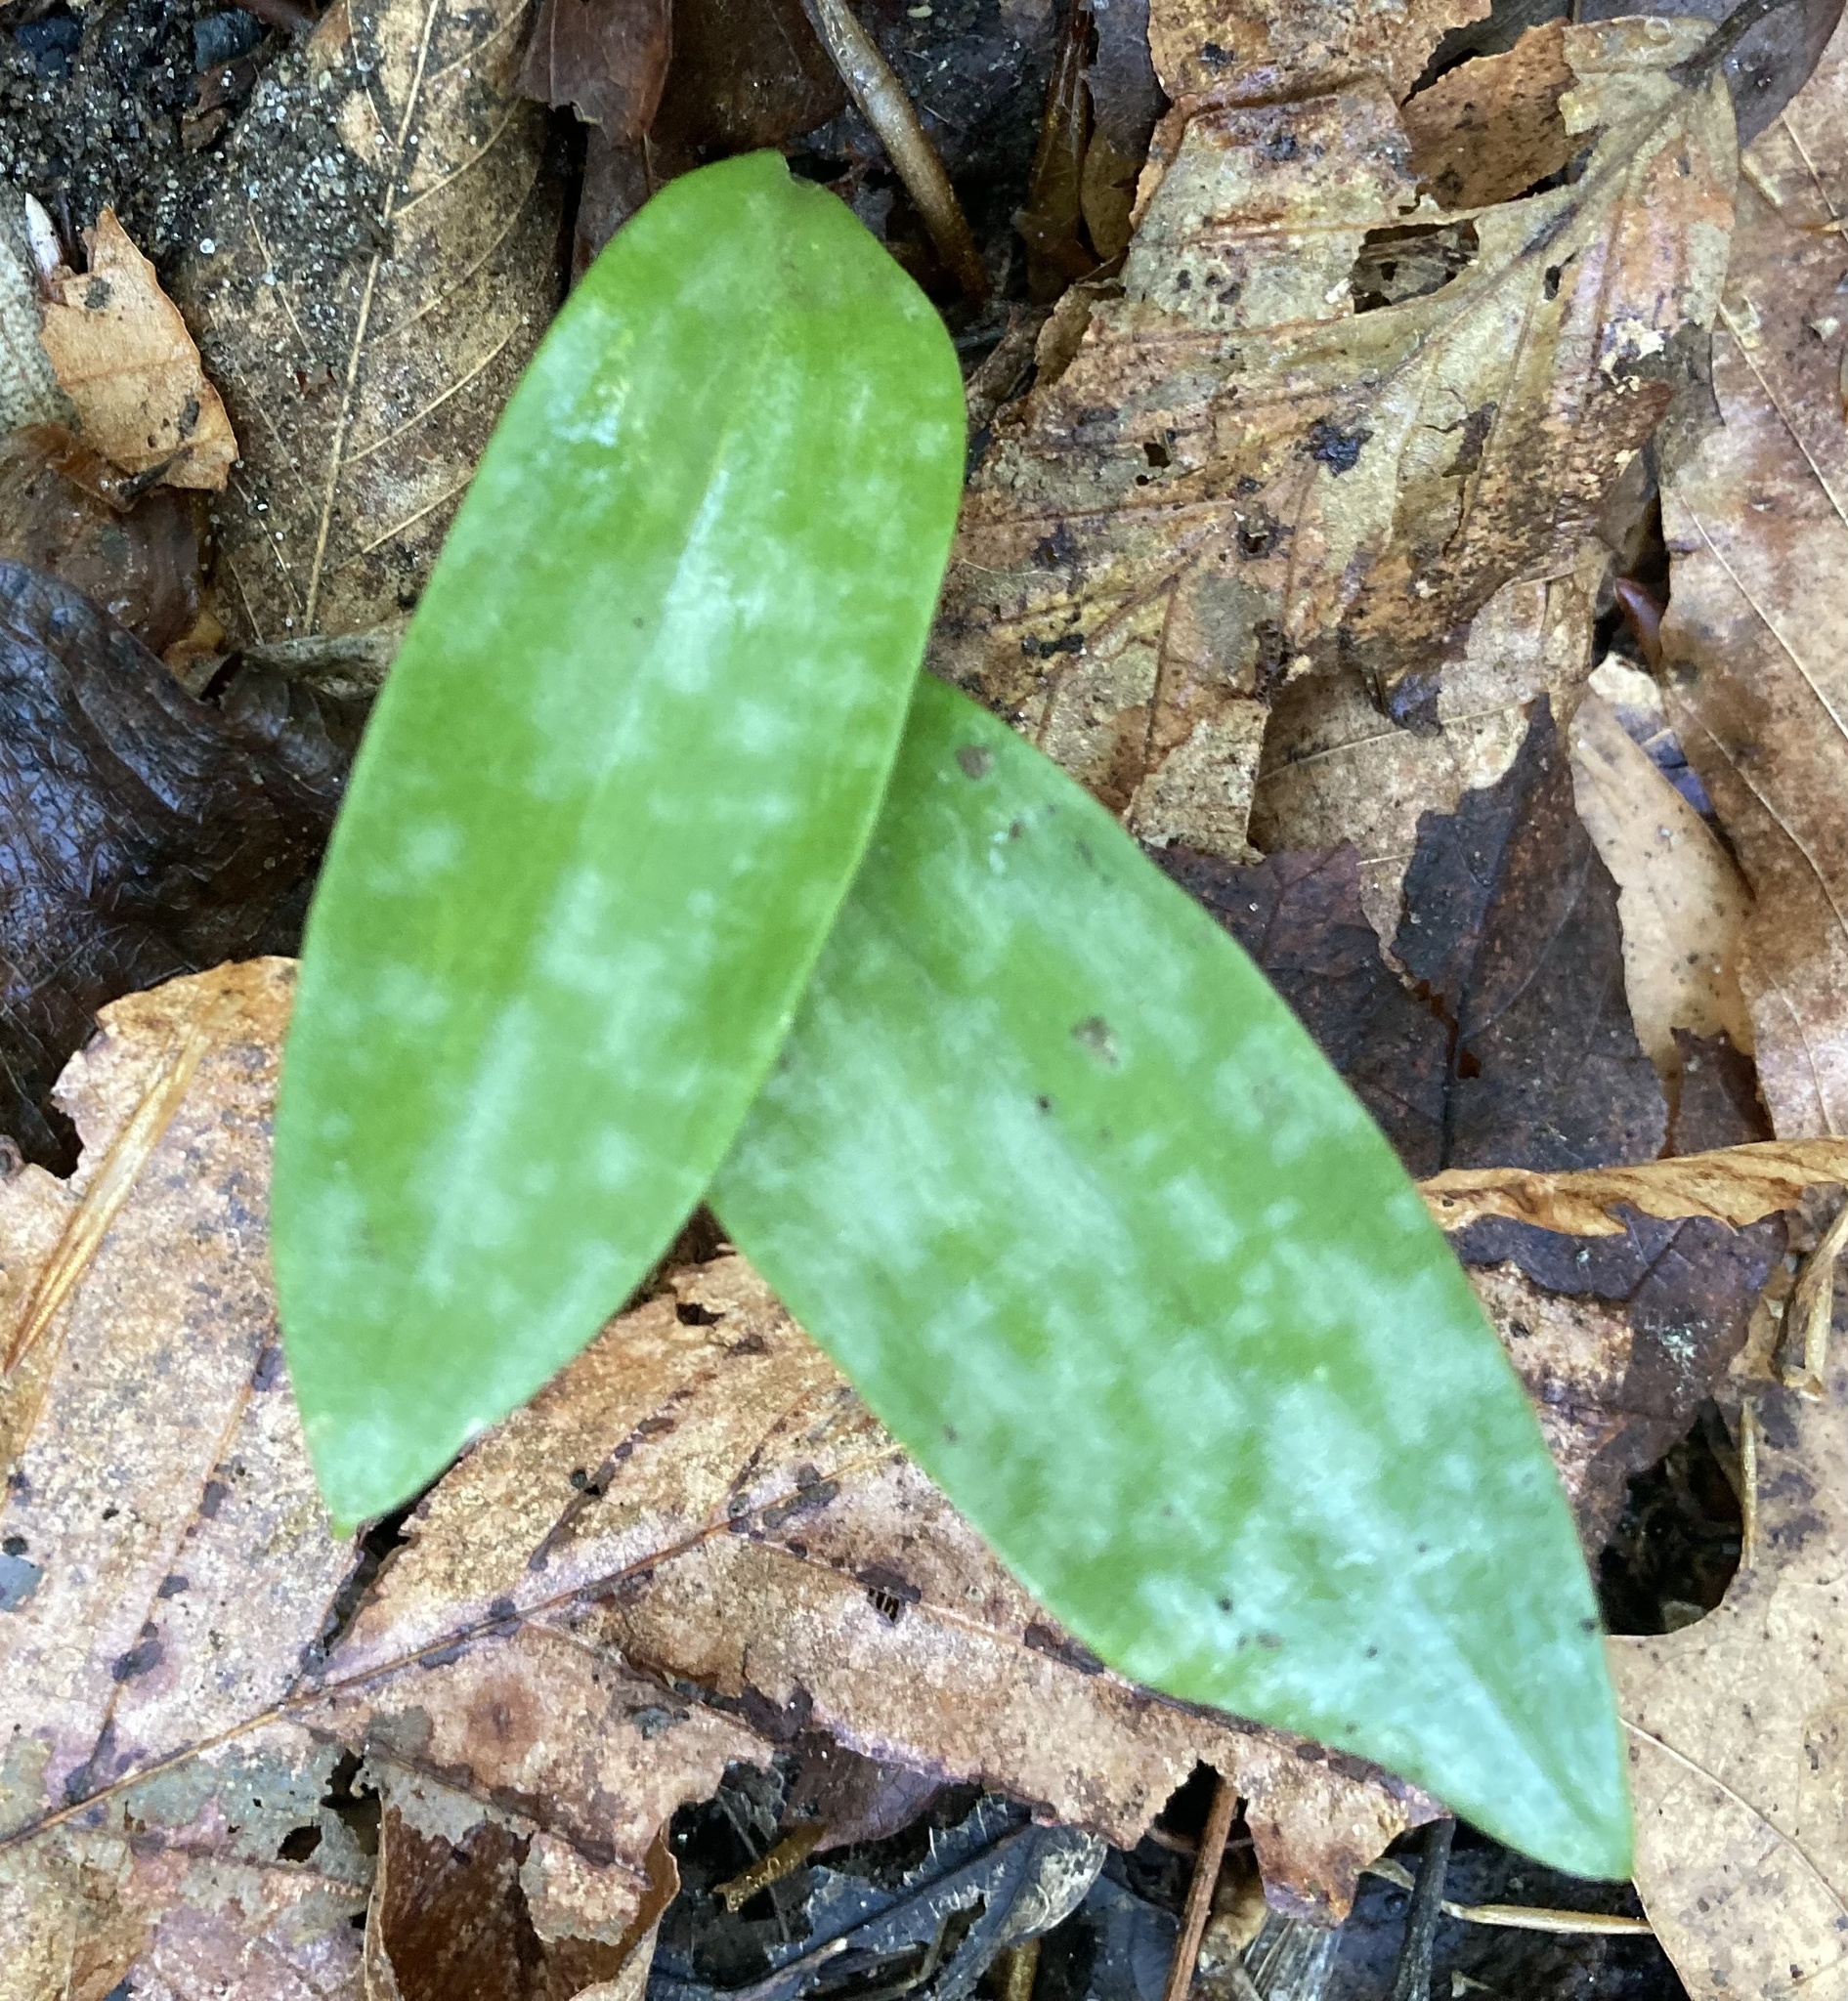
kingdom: Plantae
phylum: Tracheophyta
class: Liliopsida
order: Liliales
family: Liliaceae
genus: Erythronium
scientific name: Erythronium americanum
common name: Yellow adder's-tongue
